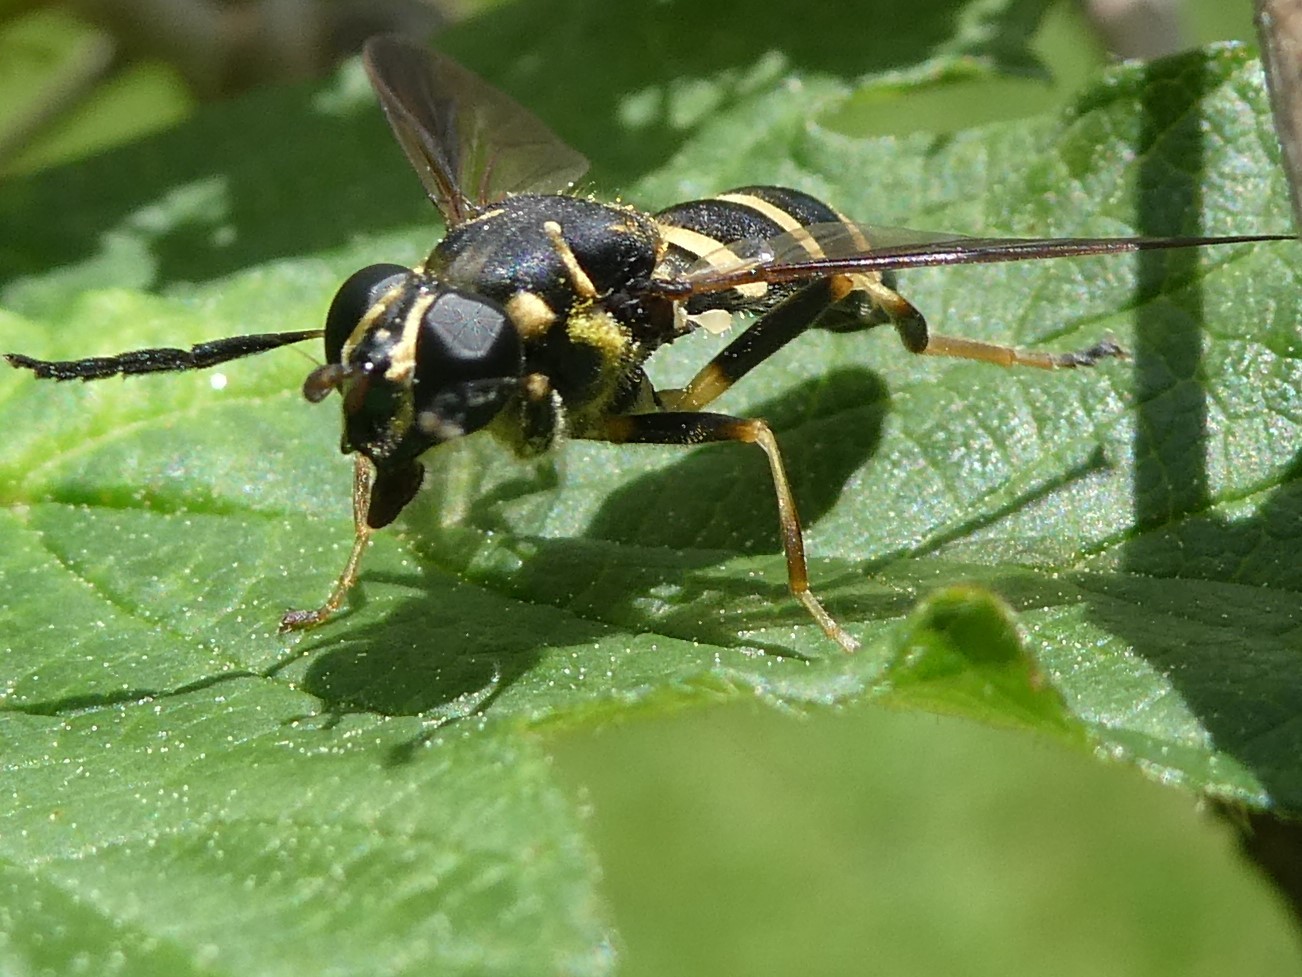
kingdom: Animalia
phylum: Arthropoda
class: Insecta
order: Diptera
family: Syrphidae
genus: Temnostoma
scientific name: Temnostoma barberi
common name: Bare-bellied falsehorn
